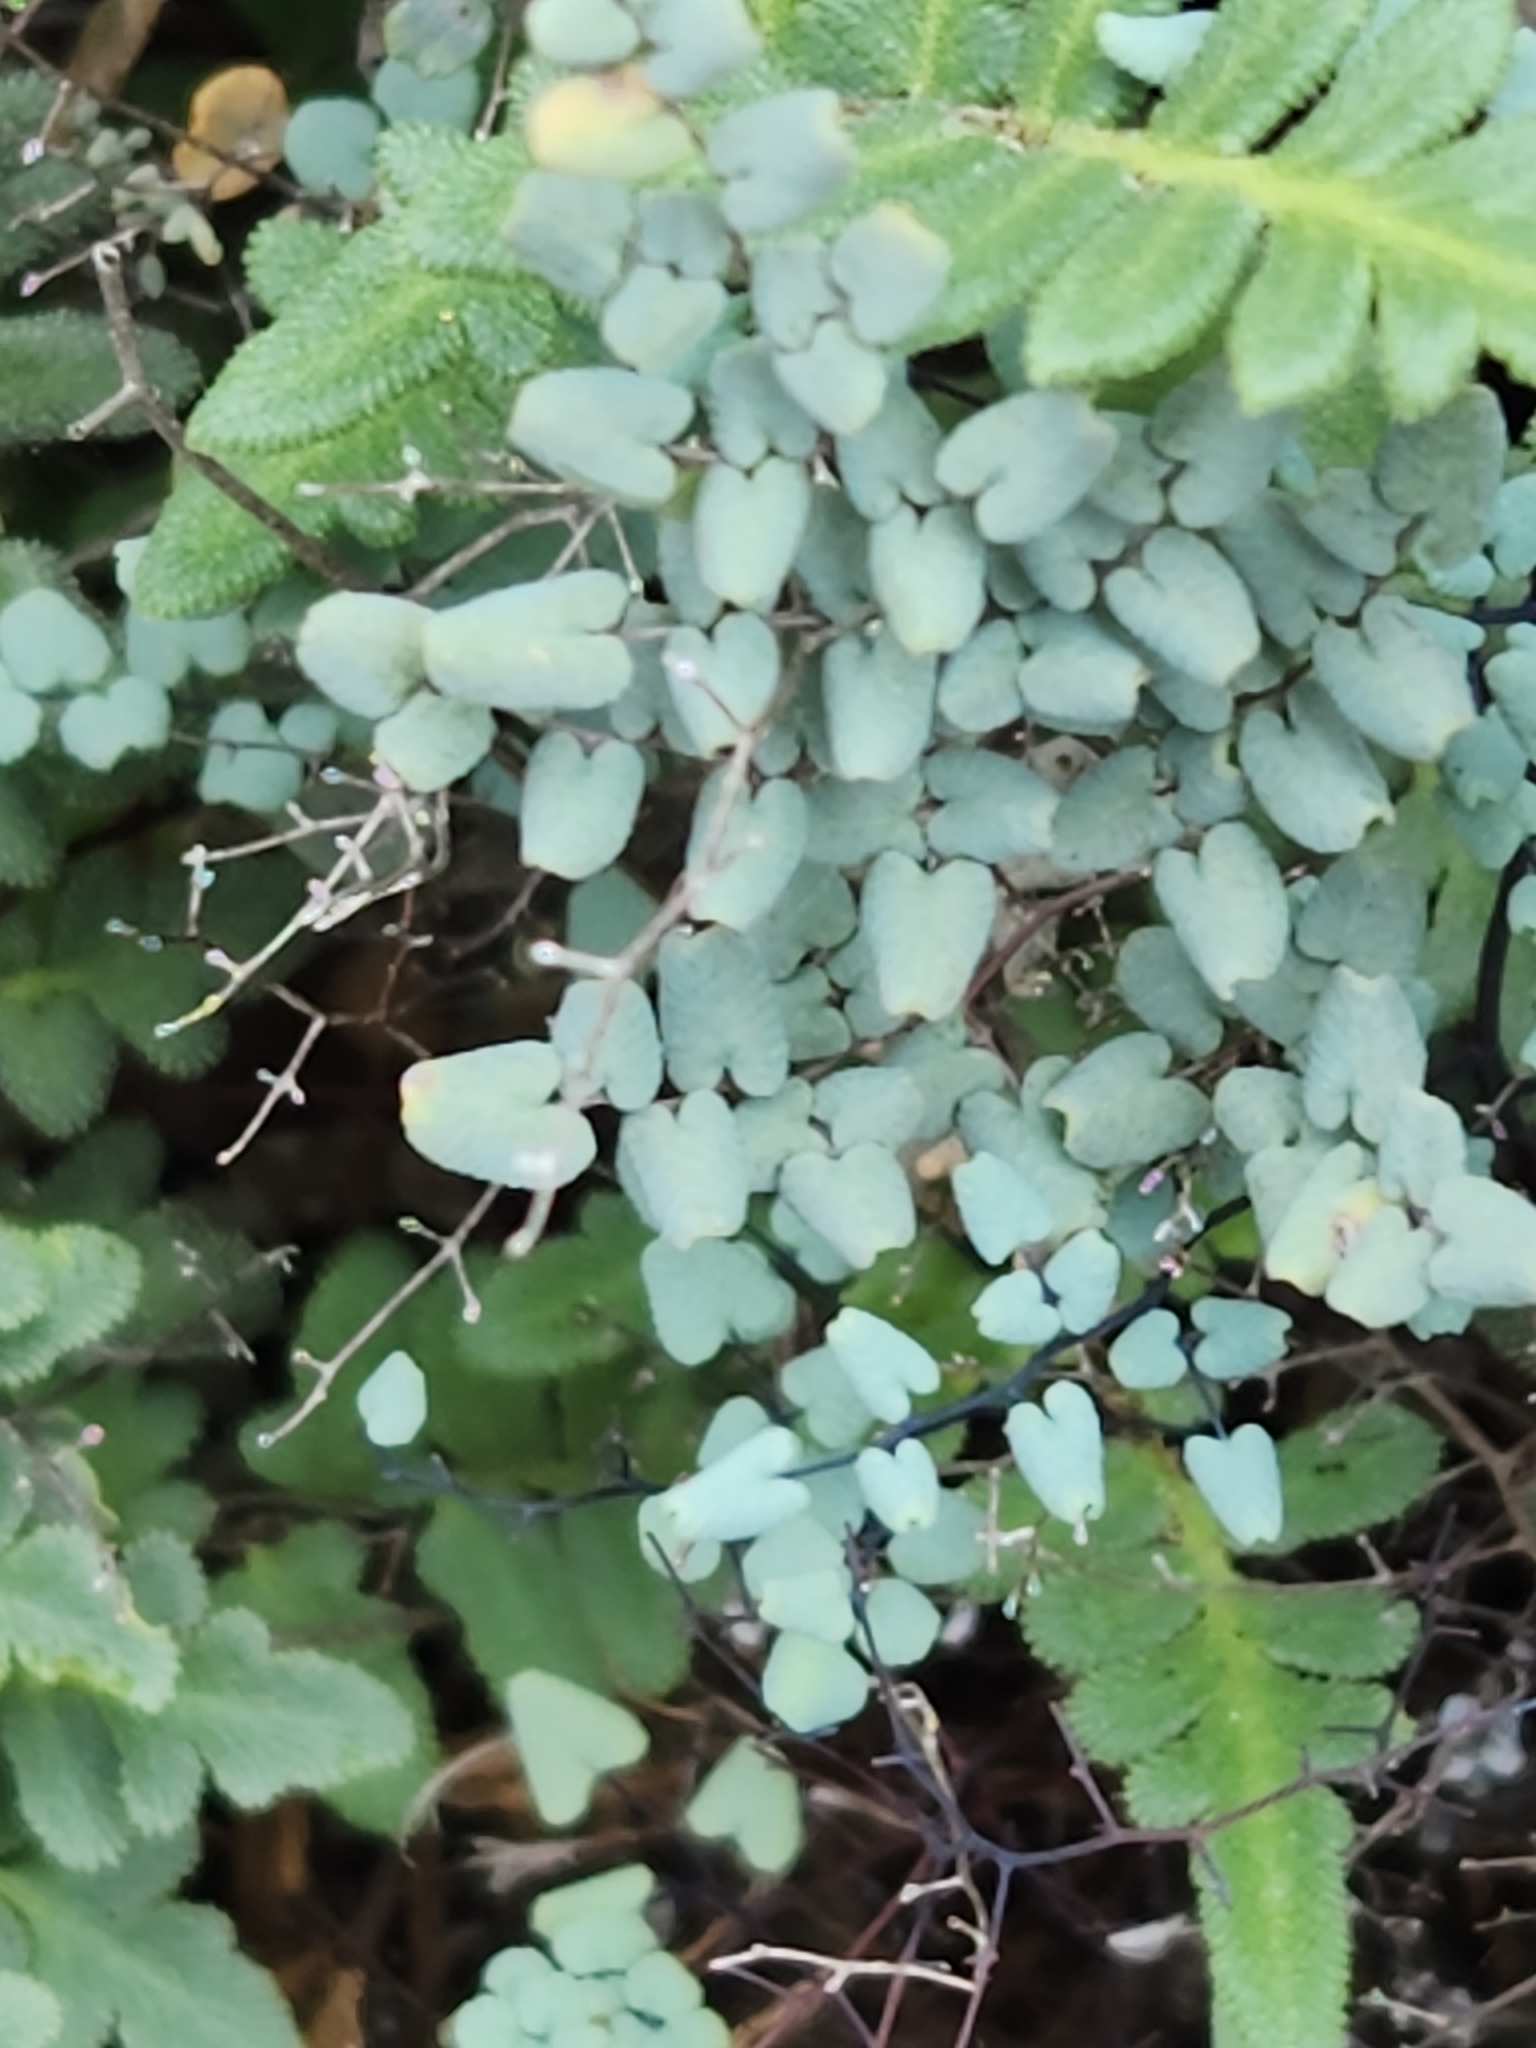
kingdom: Plantae
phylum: Tracheophyta
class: Polypodiopsida
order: Polypodiales
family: Pteridaceae
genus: Argyrochosma
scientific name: Argyrochosma microphylla
